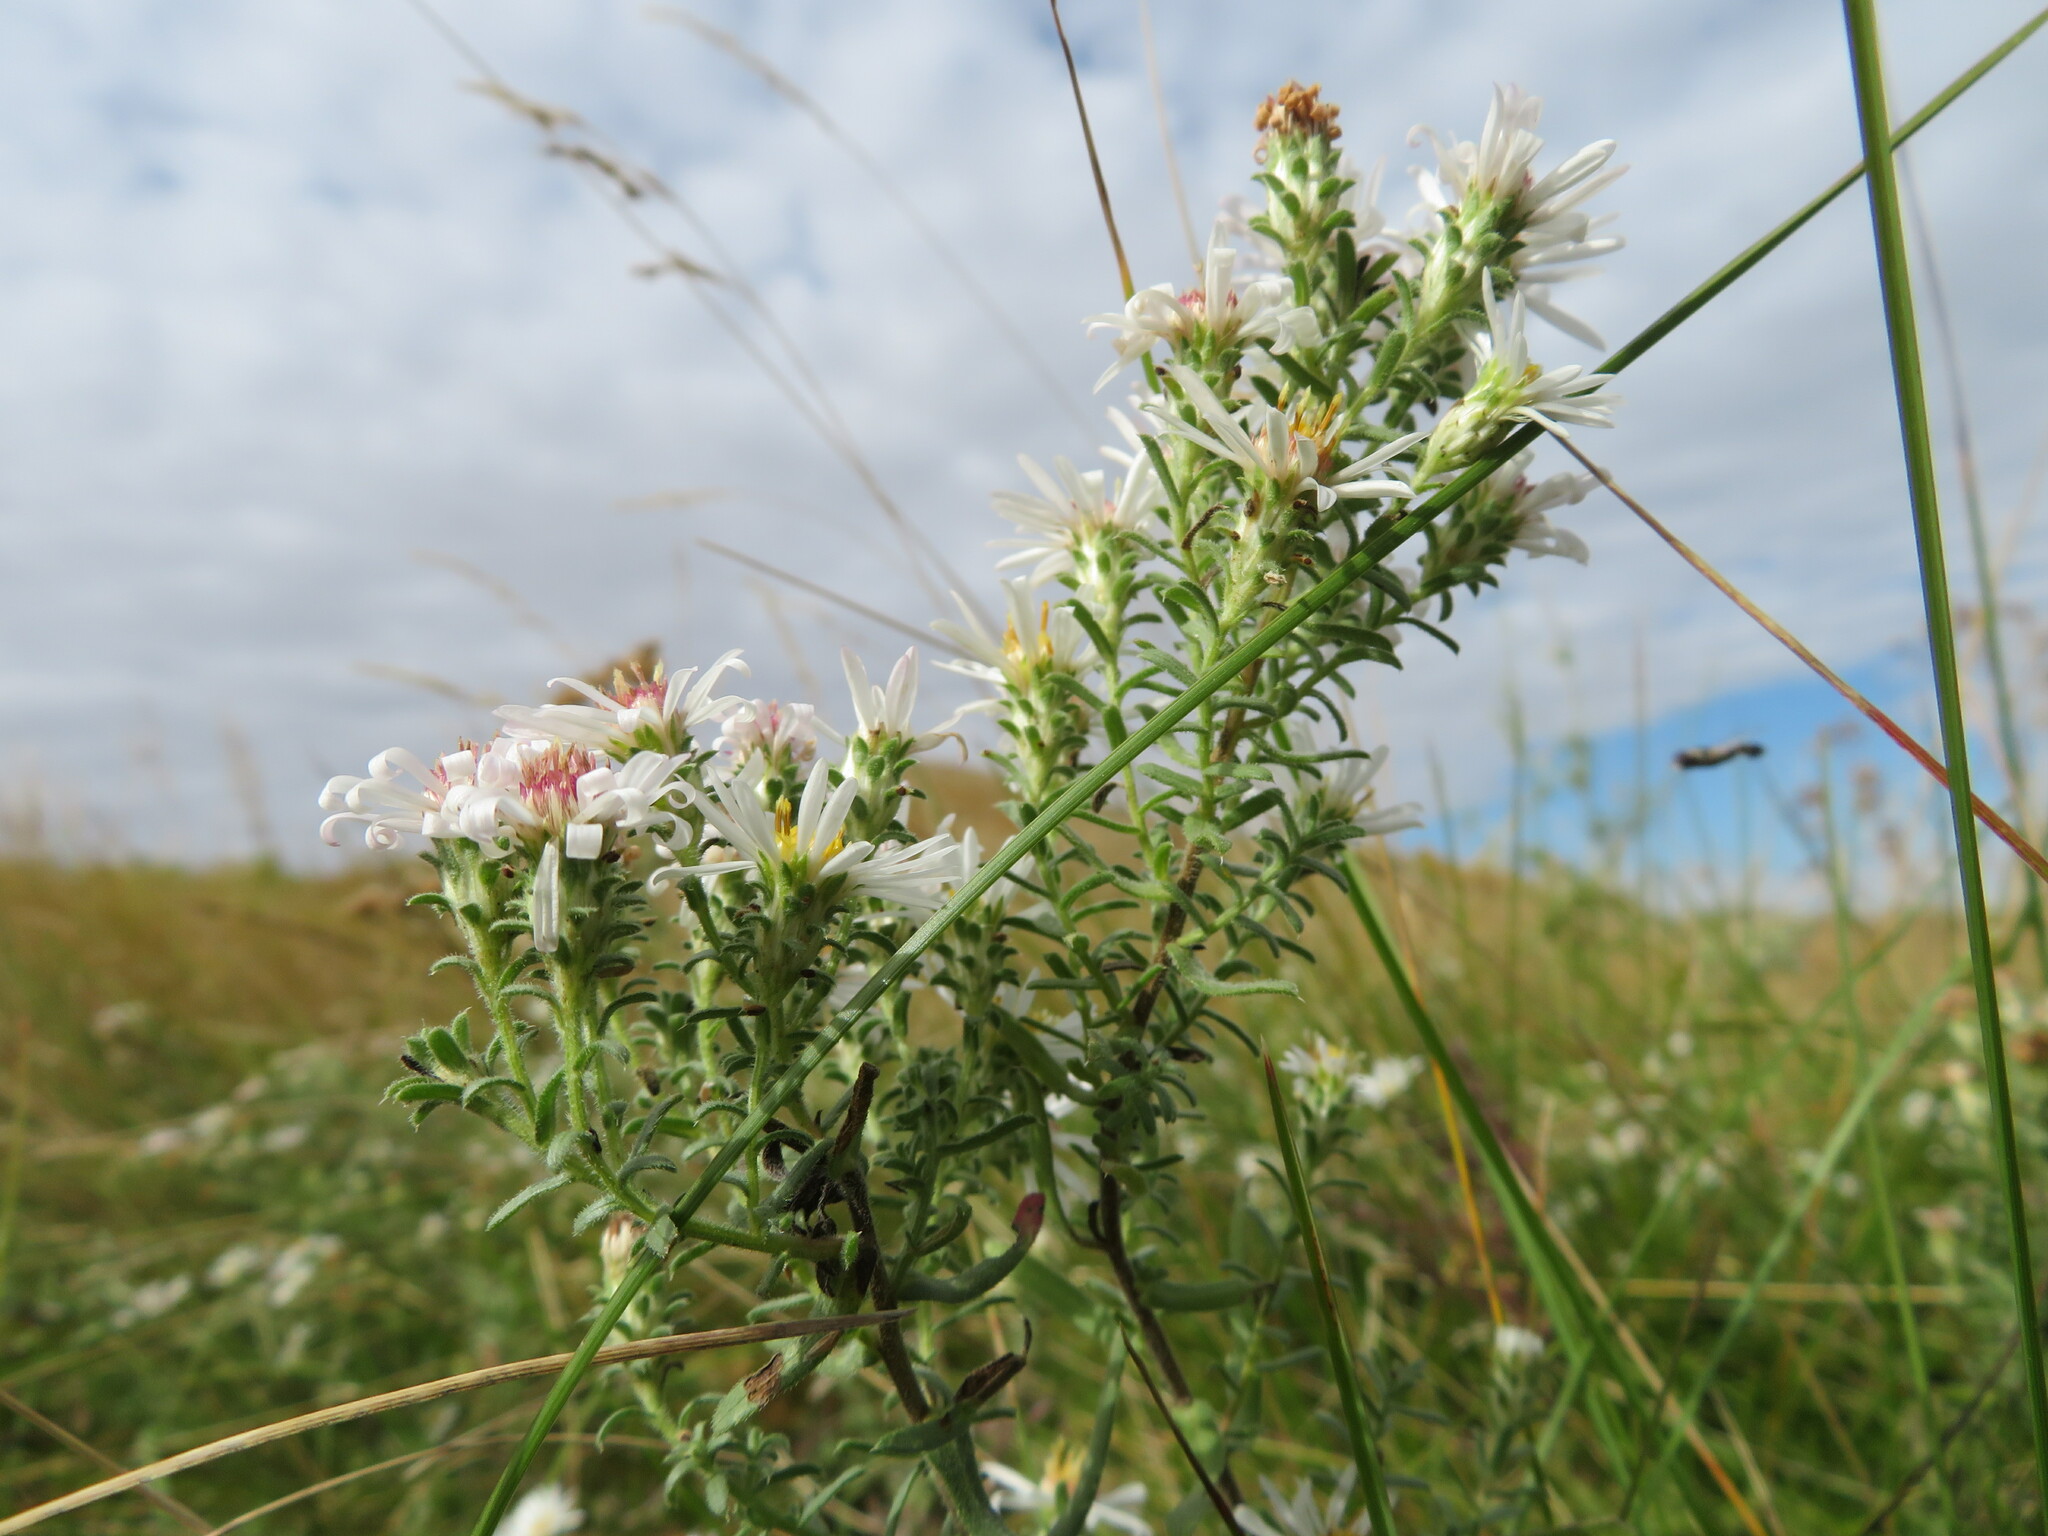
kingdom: Plantae
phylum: Tracheophyta
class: Magnoliopsida
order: Asterales
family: Asteraceae
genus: Symphyotrichum
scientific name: Symphyotrichum ericoides
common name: Heath aster
